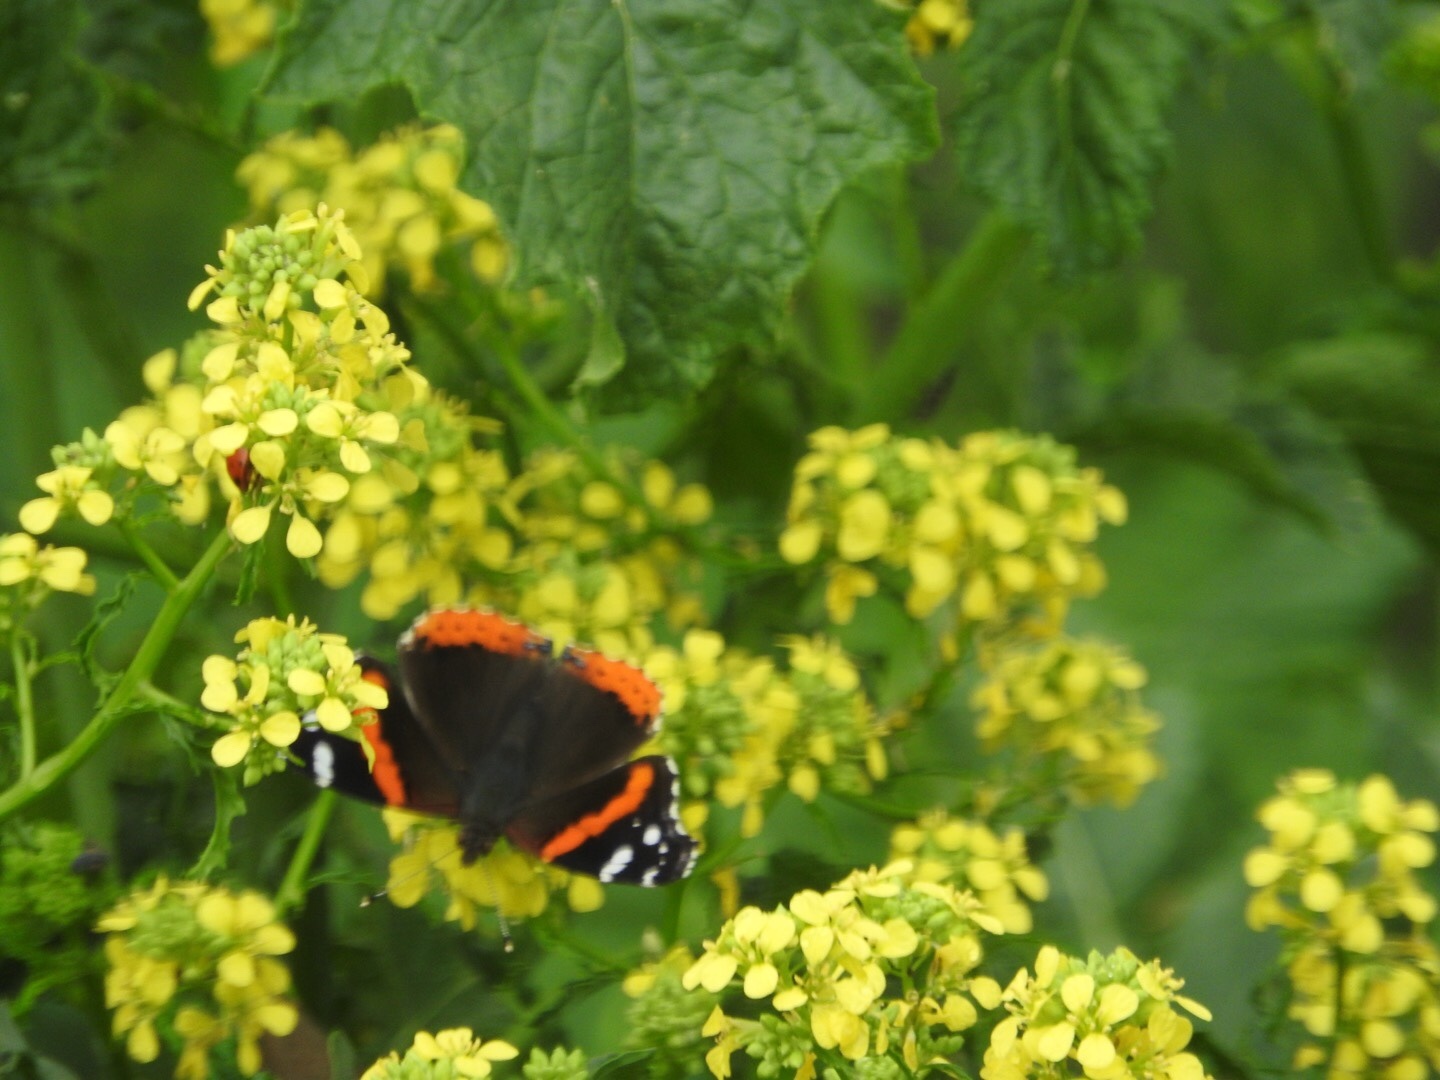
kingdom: Animalia
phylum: Arthropoda
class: Insecta
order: Lepidoptera
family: Nymphalidae
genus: Vanessa
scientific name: Vanessa atalanta
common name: Red admiral
